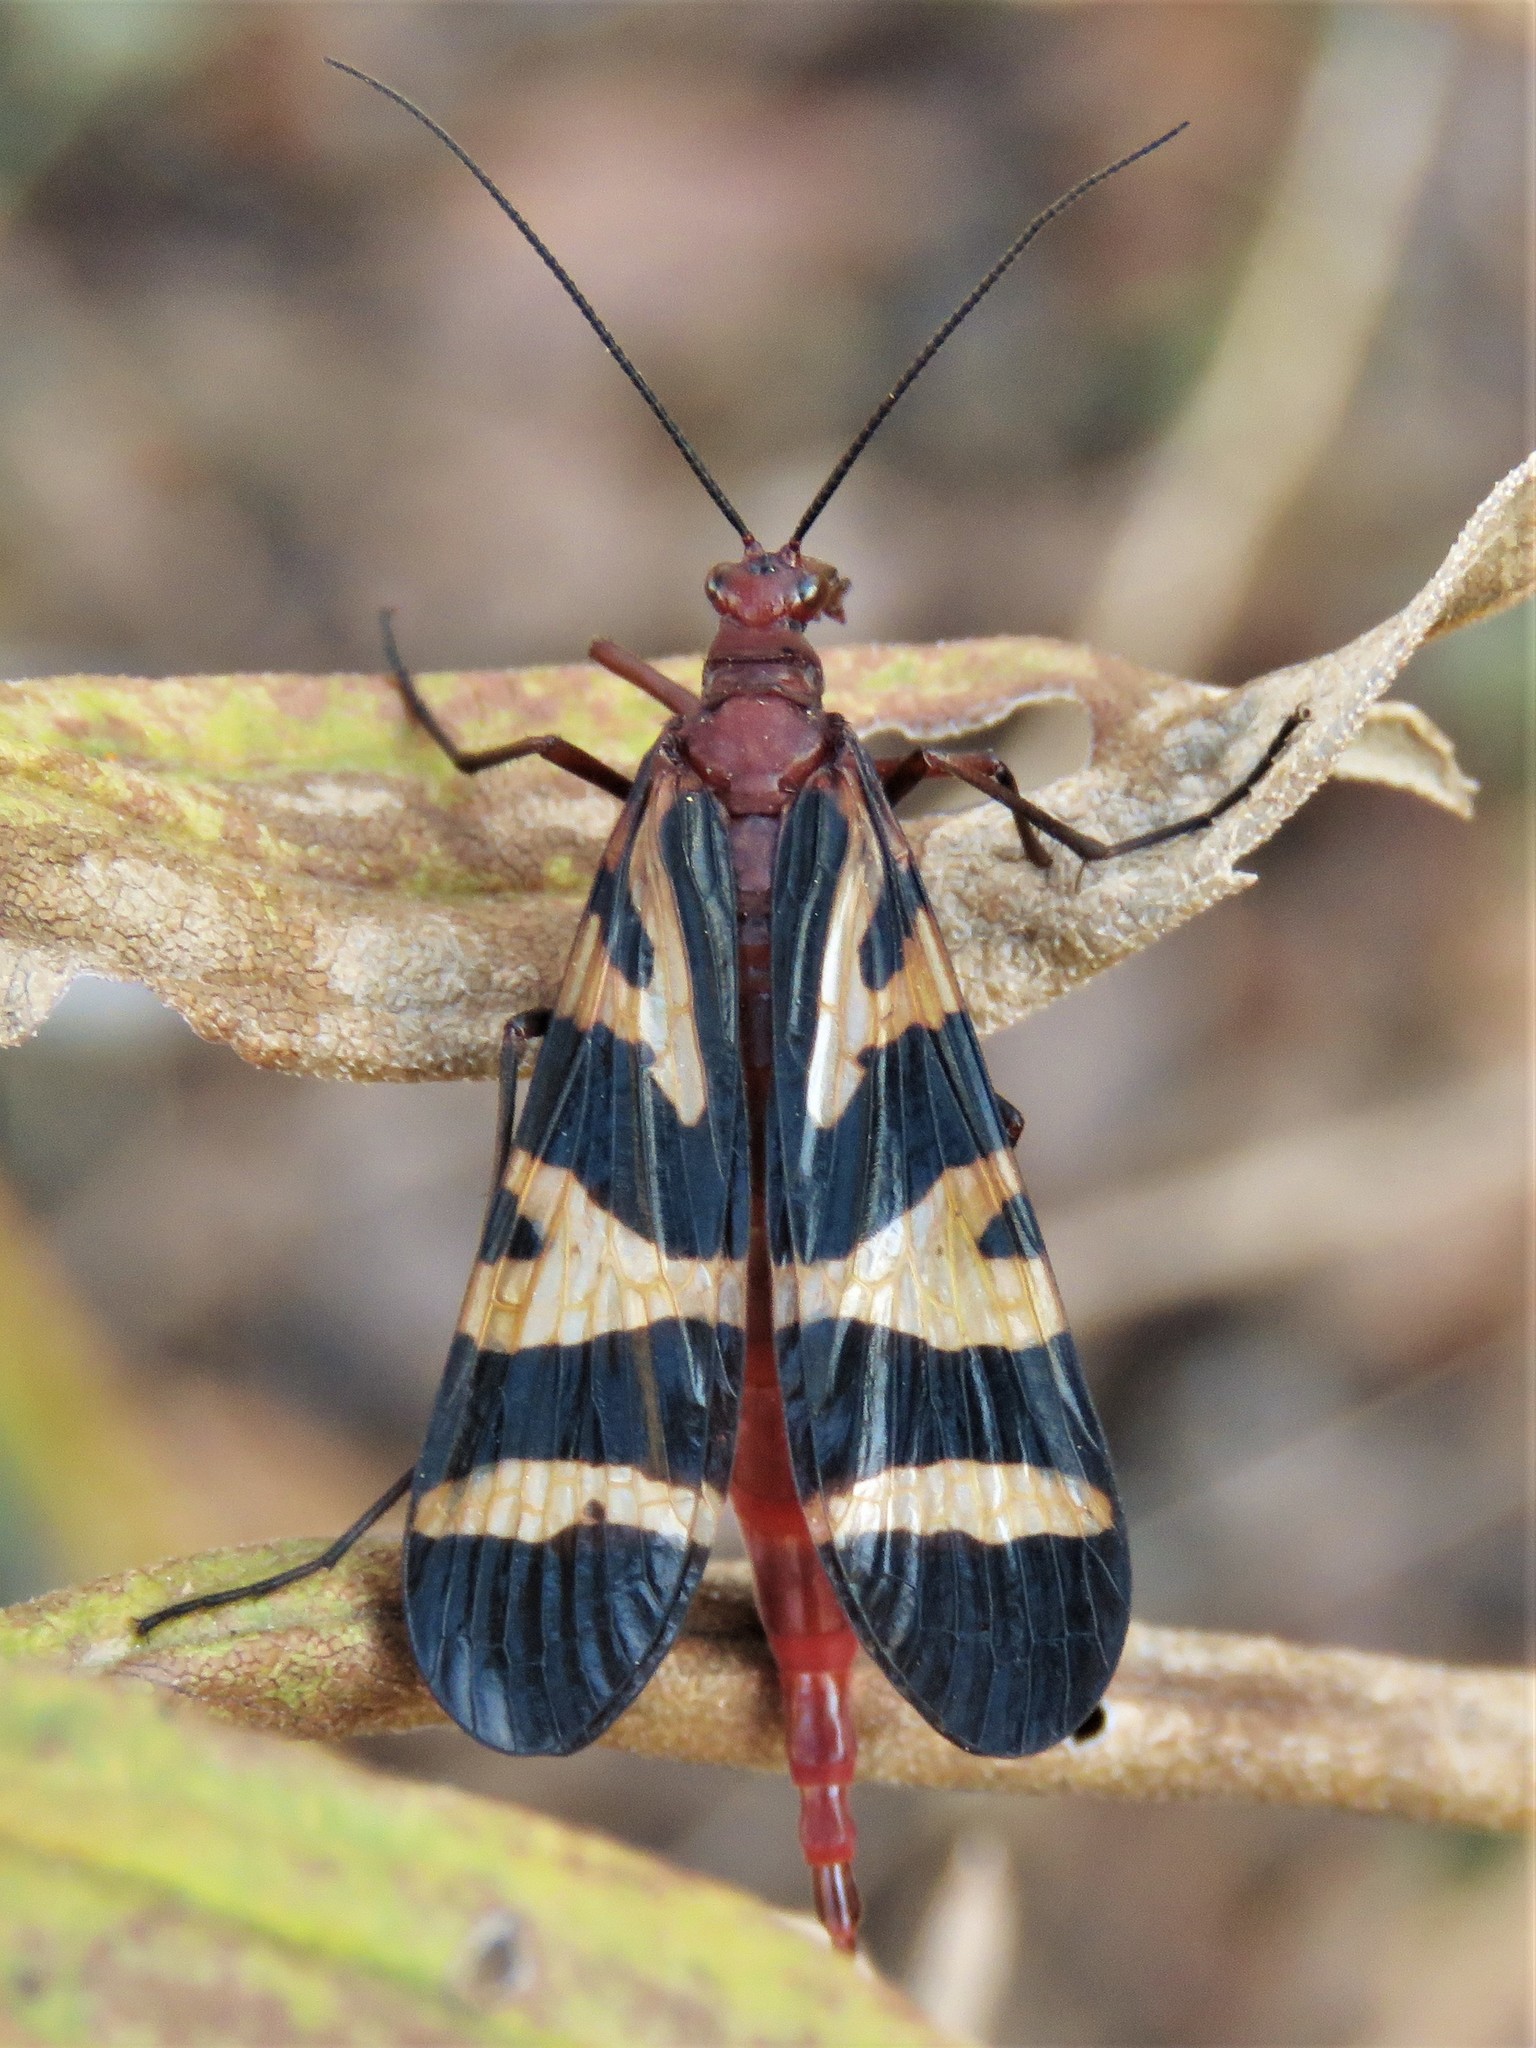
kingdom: Animalia
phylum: Arthropoda
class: Insecta
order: Mecoptera
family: Panorpidae
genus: Panorpa
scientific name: Panorpa nuptialis
